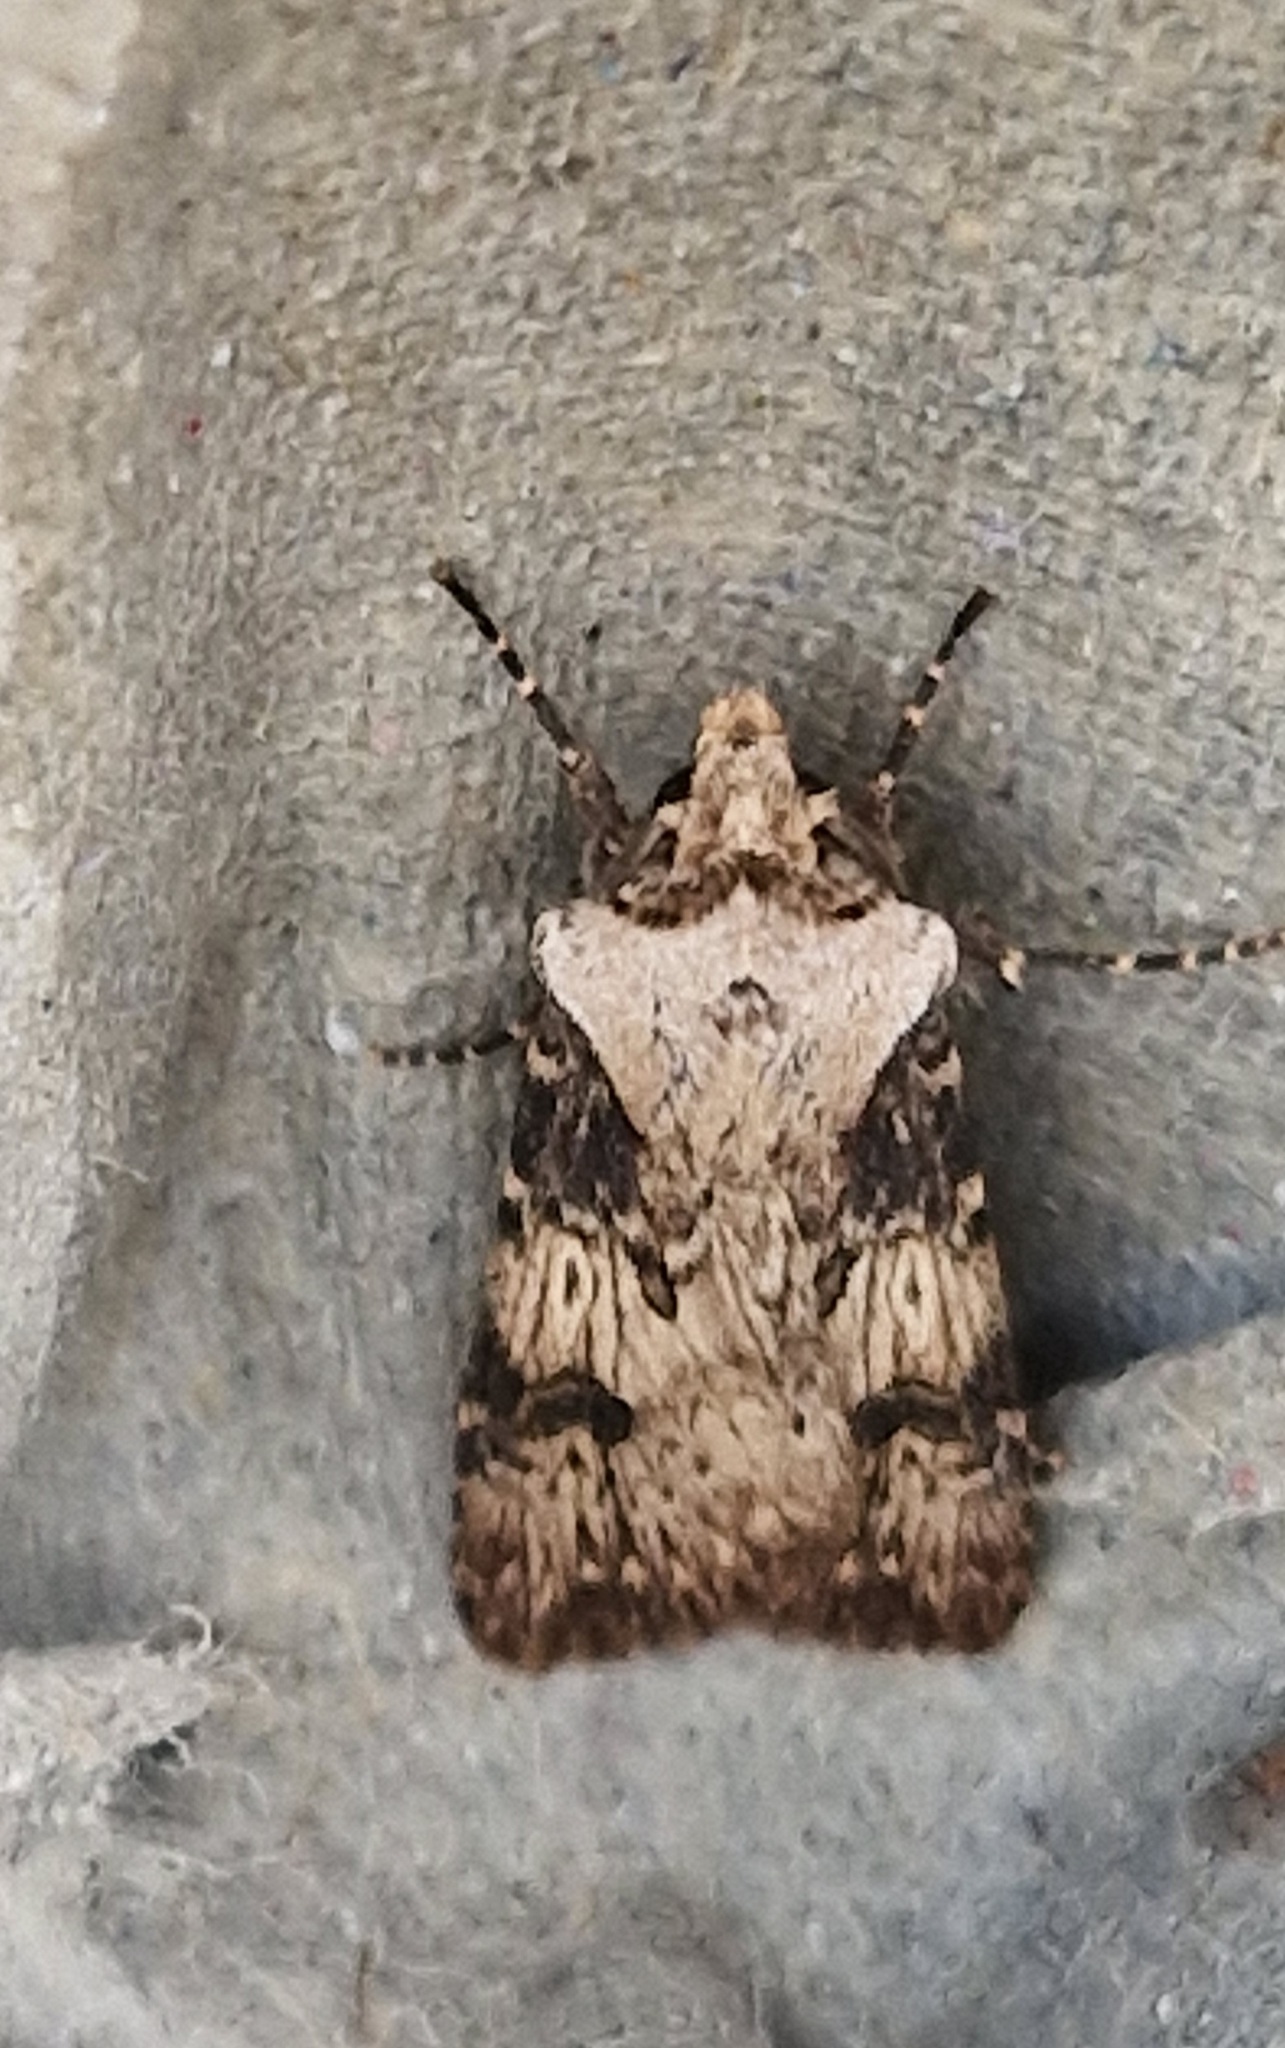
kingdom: Animalia
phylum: Arthropoda
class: Insecta
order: Lepidoptera
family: Noctuidae
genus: Agrotis
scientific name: Agrotis puta
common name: Shuttle-shaped dart
